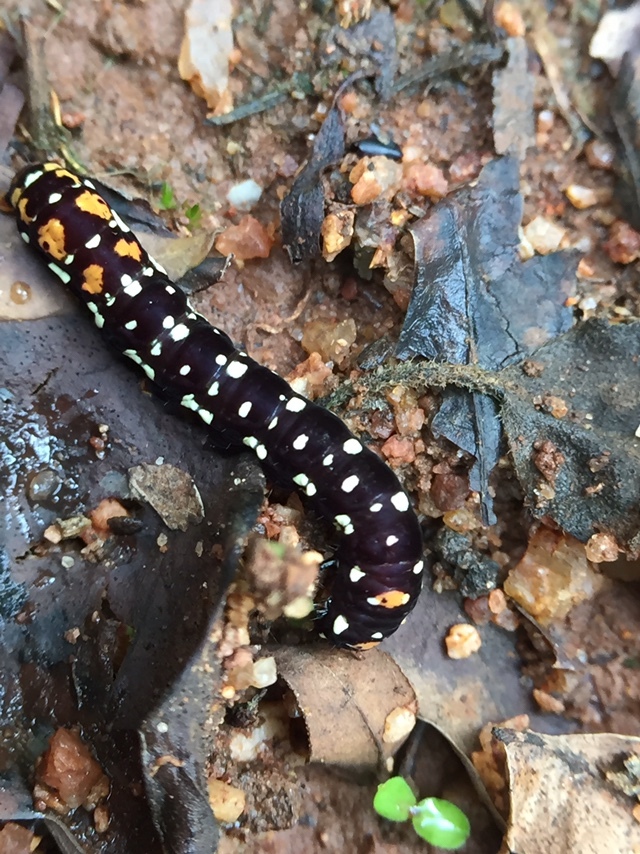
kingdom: Animalia
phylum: Arthropoda
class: Insecta
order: Lepidoptera
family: Noctuidae
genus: Polytela
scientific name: Polytela gloriosae
